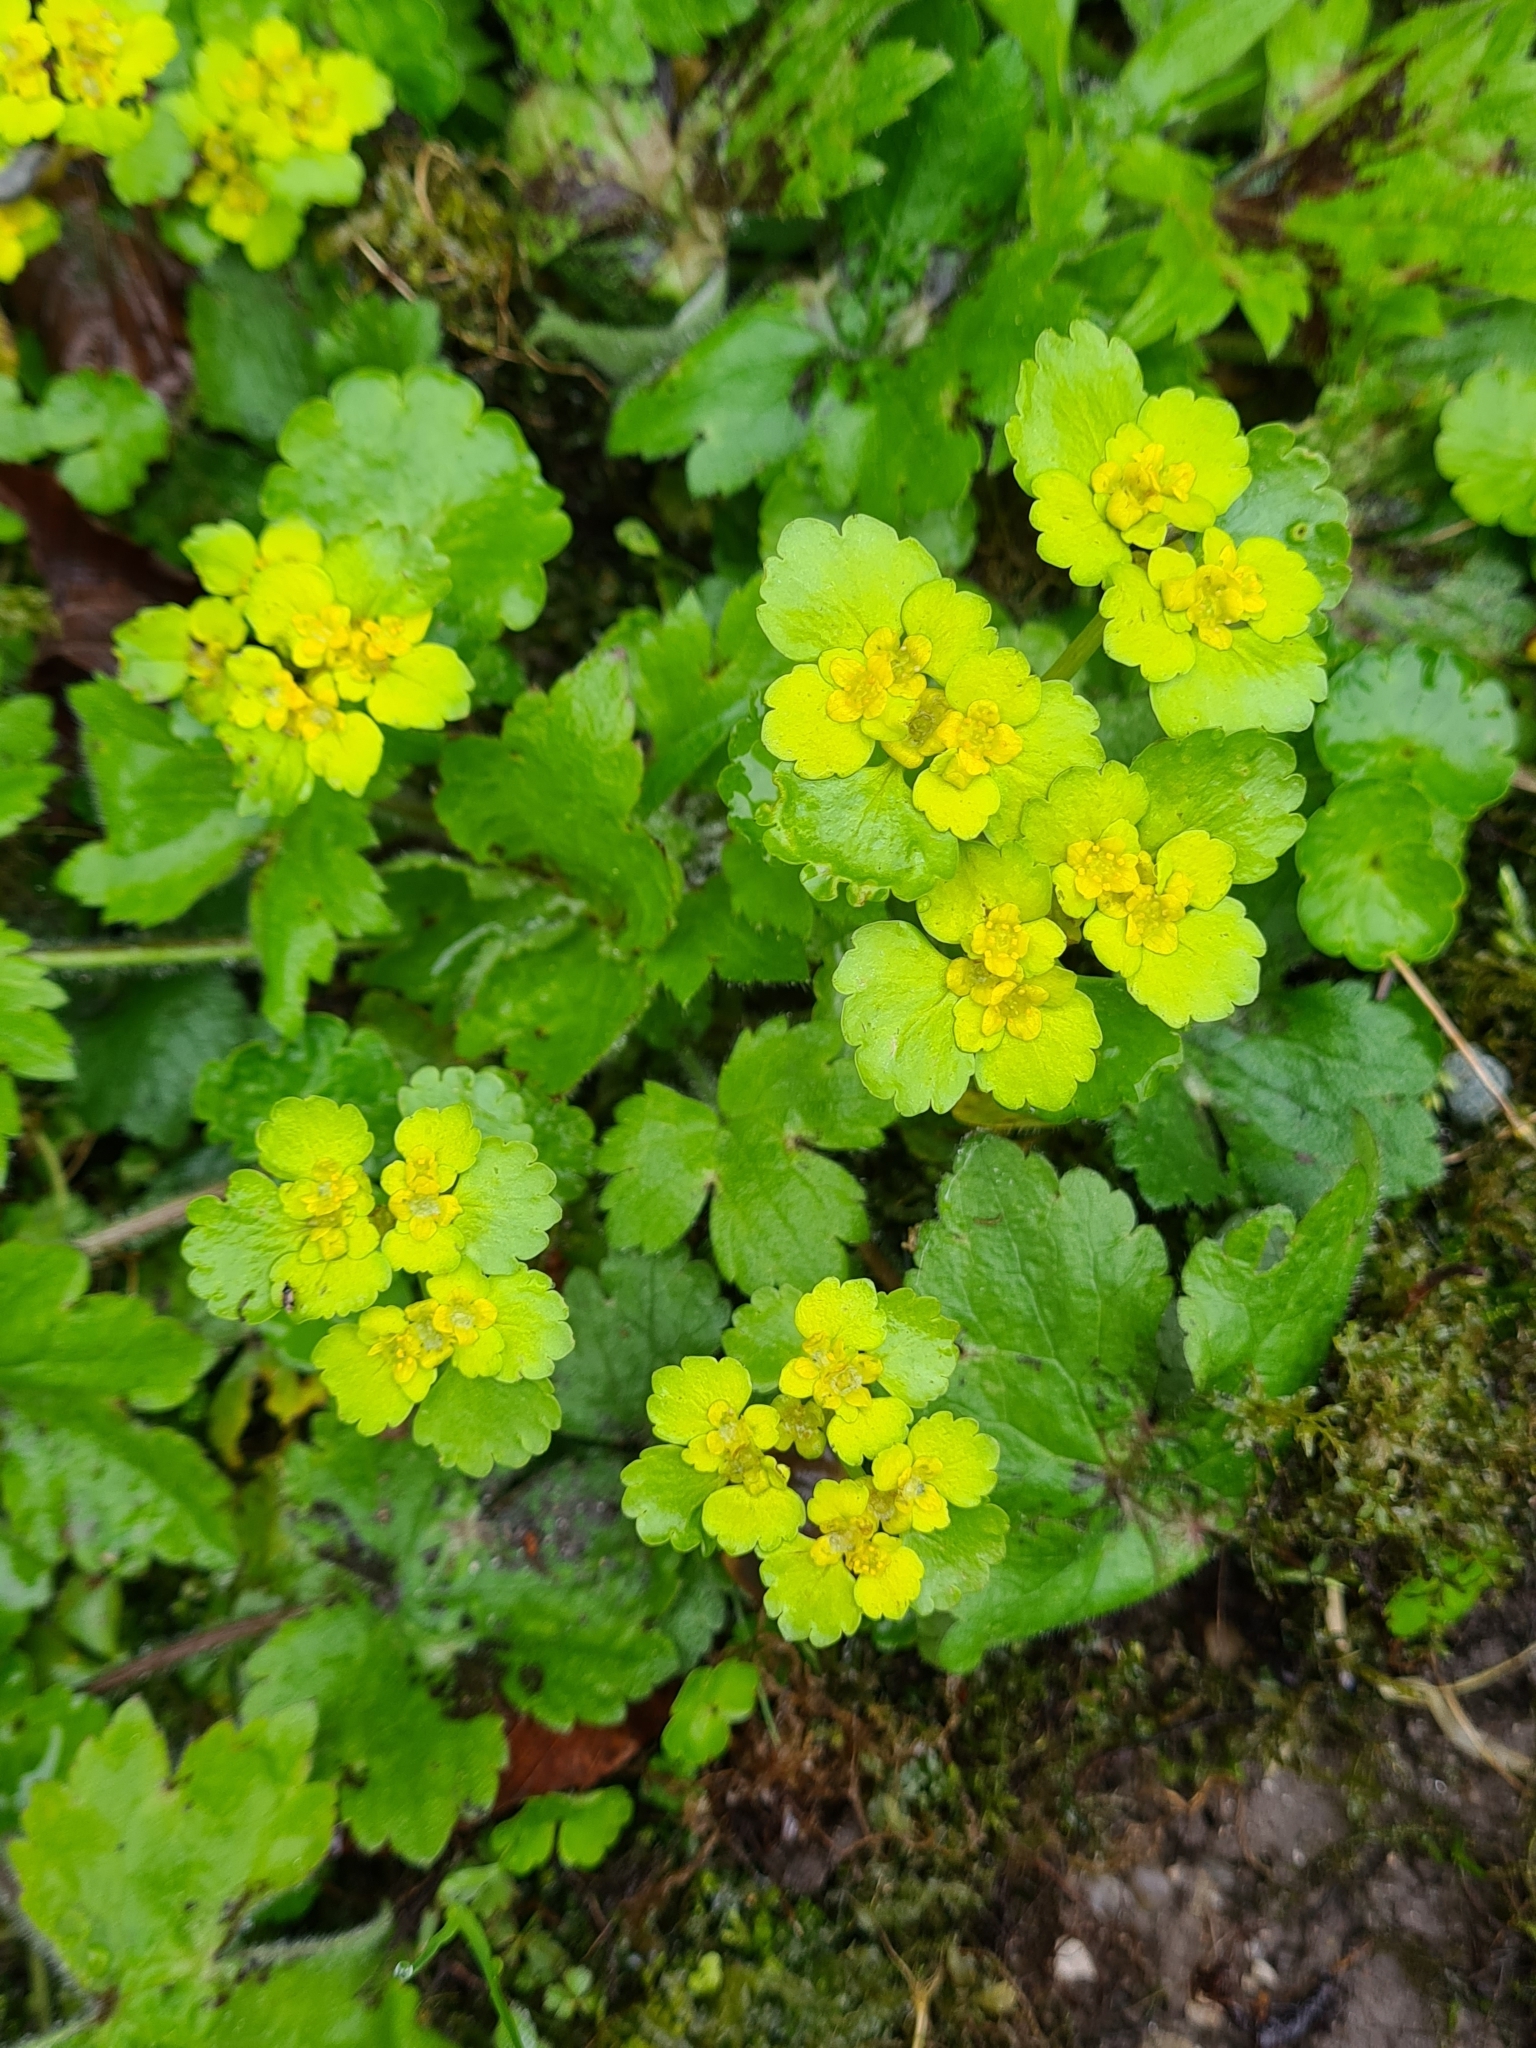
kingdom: Plantae
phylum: Tracheophyta
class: Magnoliopsida
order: Saxifragales
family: Saxifragaceae
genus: Chrysosplenium
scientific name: Chrysosplenium alternifolium
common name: Alternate-leaved golden-saxifrage
